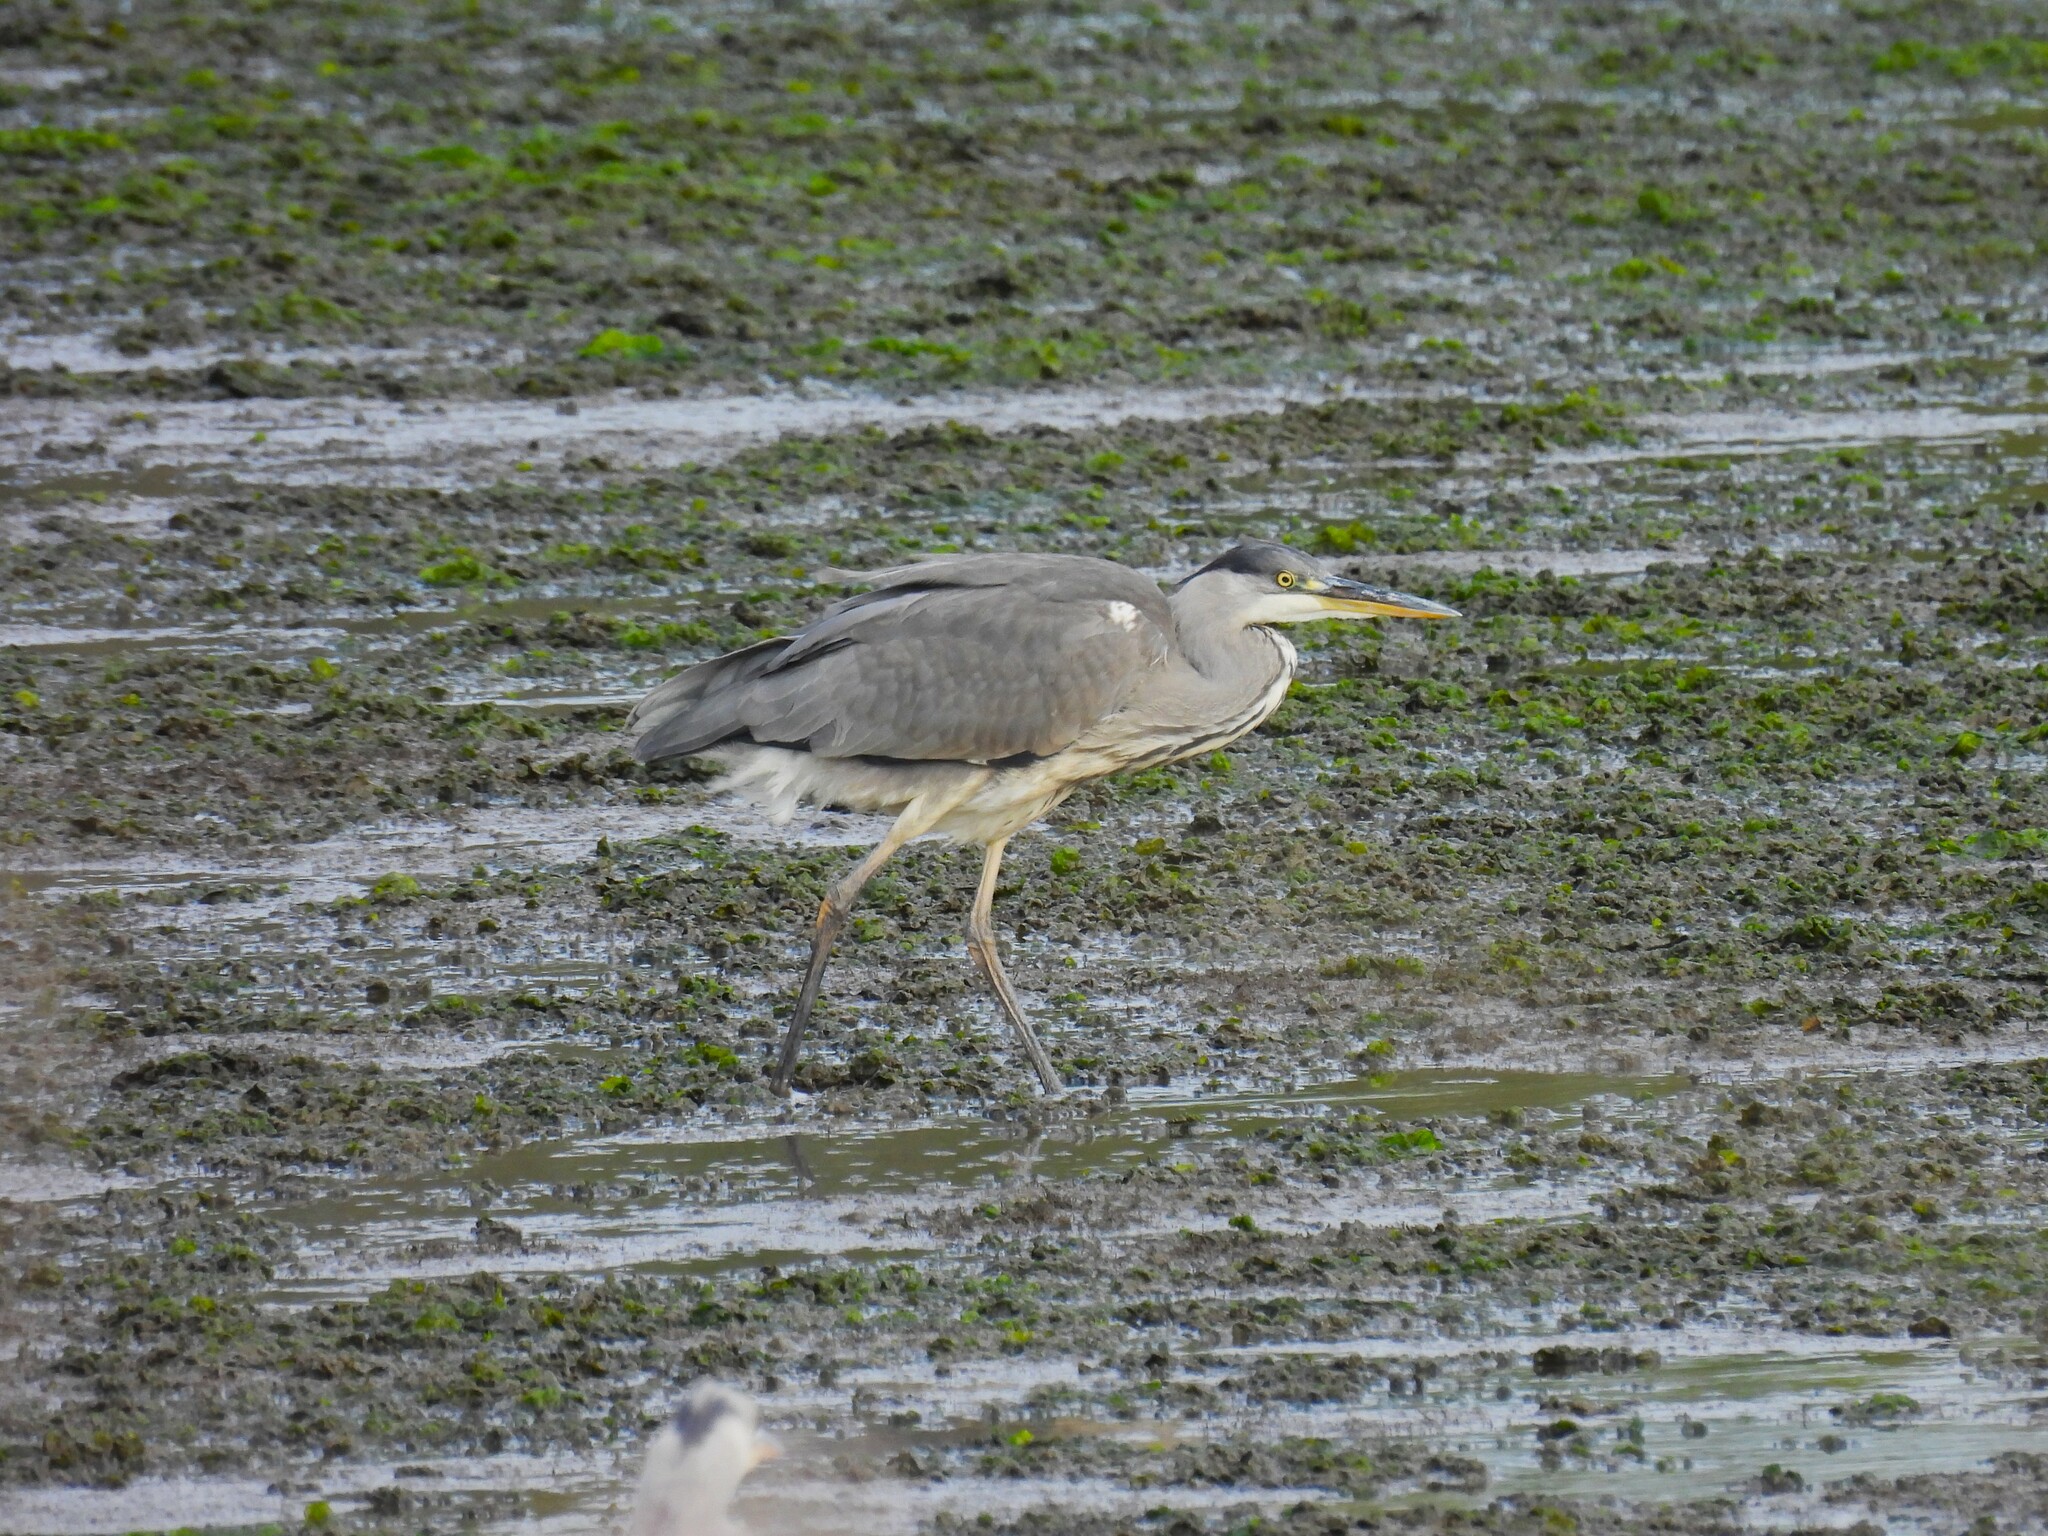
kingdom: Animalia
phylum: Chordata
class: Aves
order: Pelecaniformes
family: Ardeidae
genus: Ardea
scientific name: Ardea cinerea
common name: Grey heron
